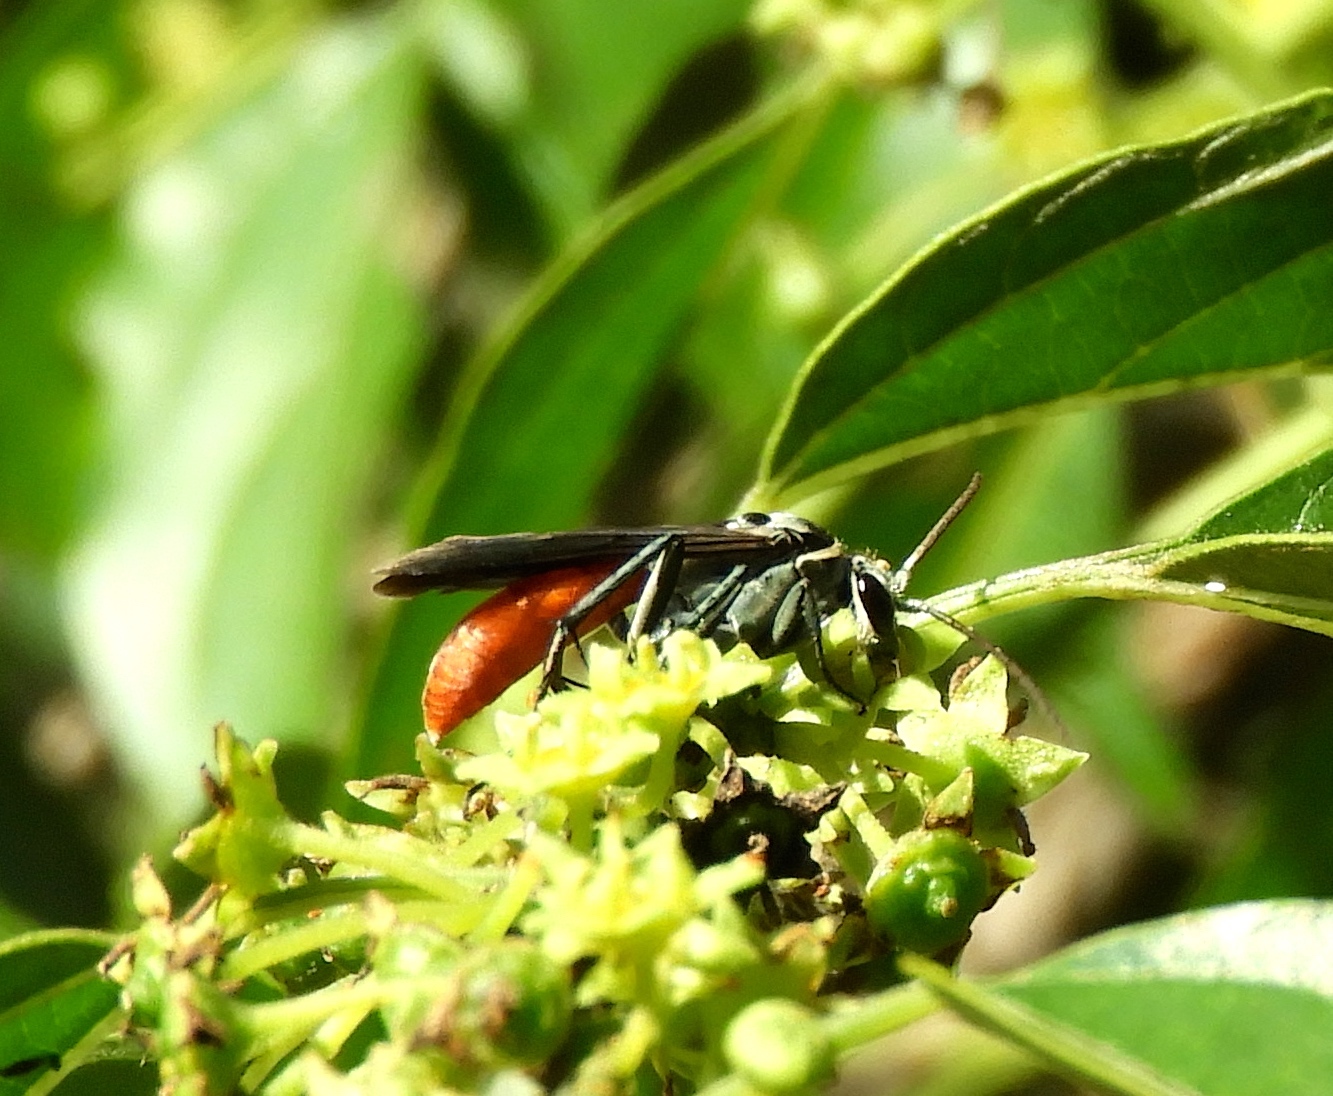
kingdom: Animalia
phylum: Arthropoda
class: Insecta
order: Hymenoptera
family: Pompilidae
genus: Xerochares
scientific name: Xerochares expulsus
